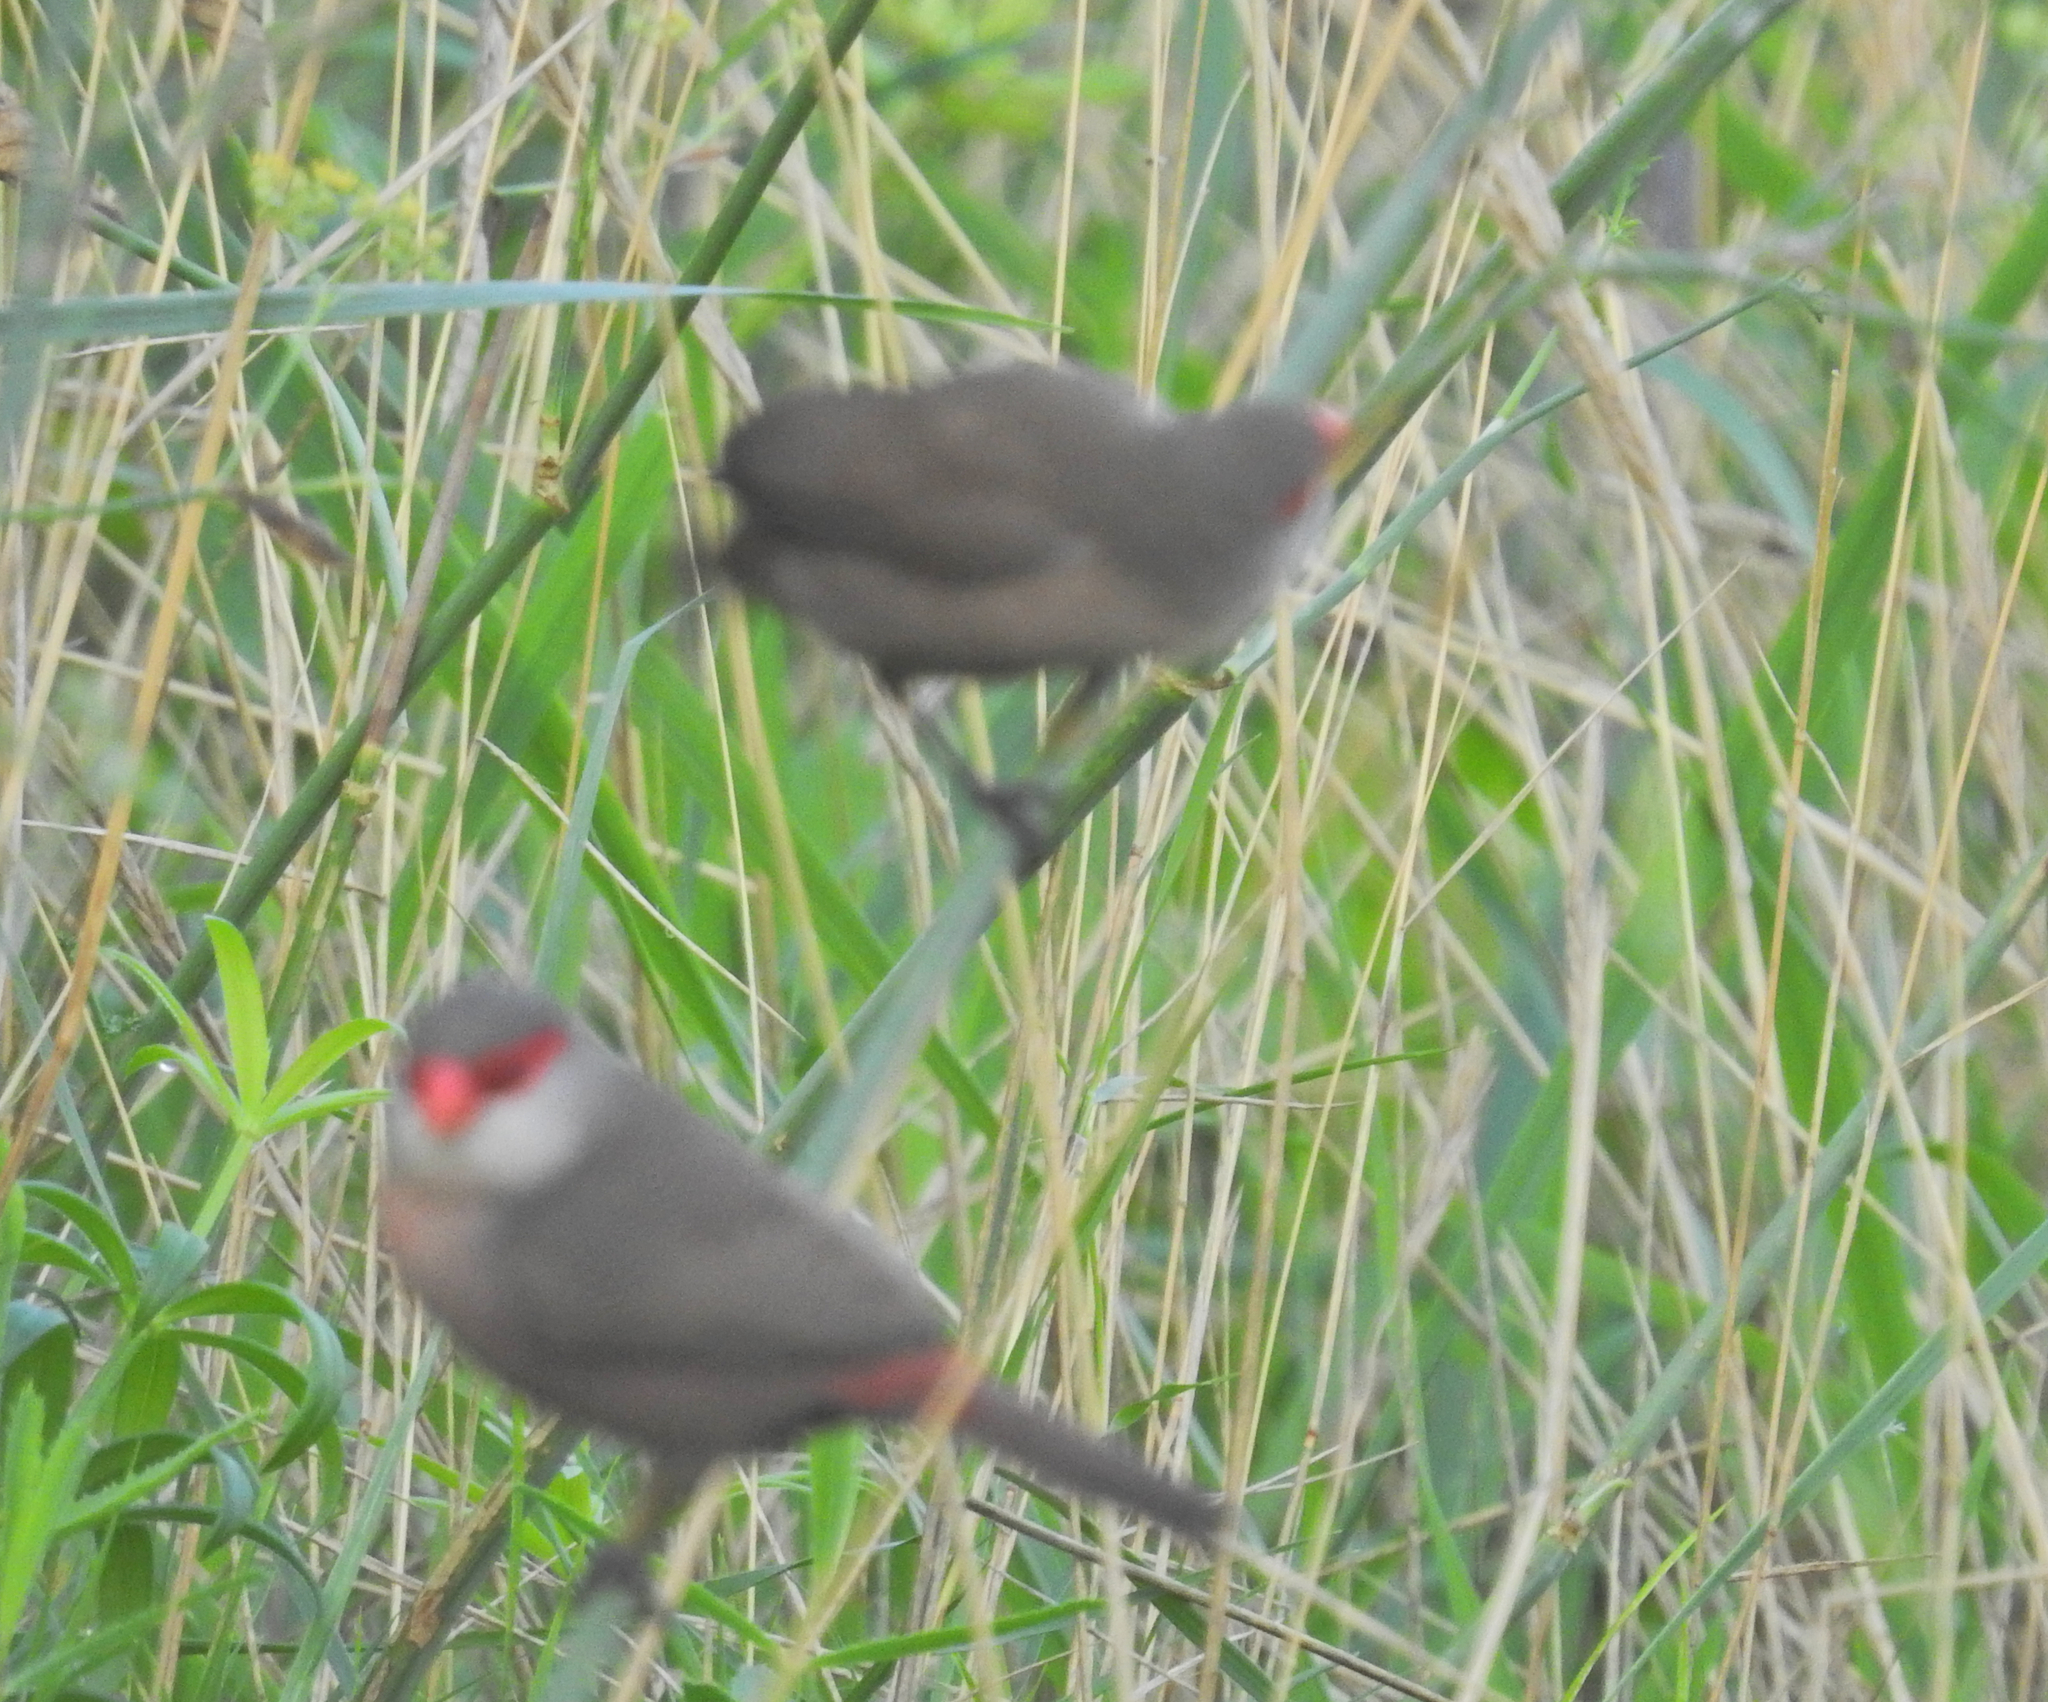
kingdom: Animalia
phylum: Chordata
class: Aves
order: Passeriformes
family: Estrildidae
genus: Estrilda
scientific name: Estrilda astrild
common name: Common waxbill
